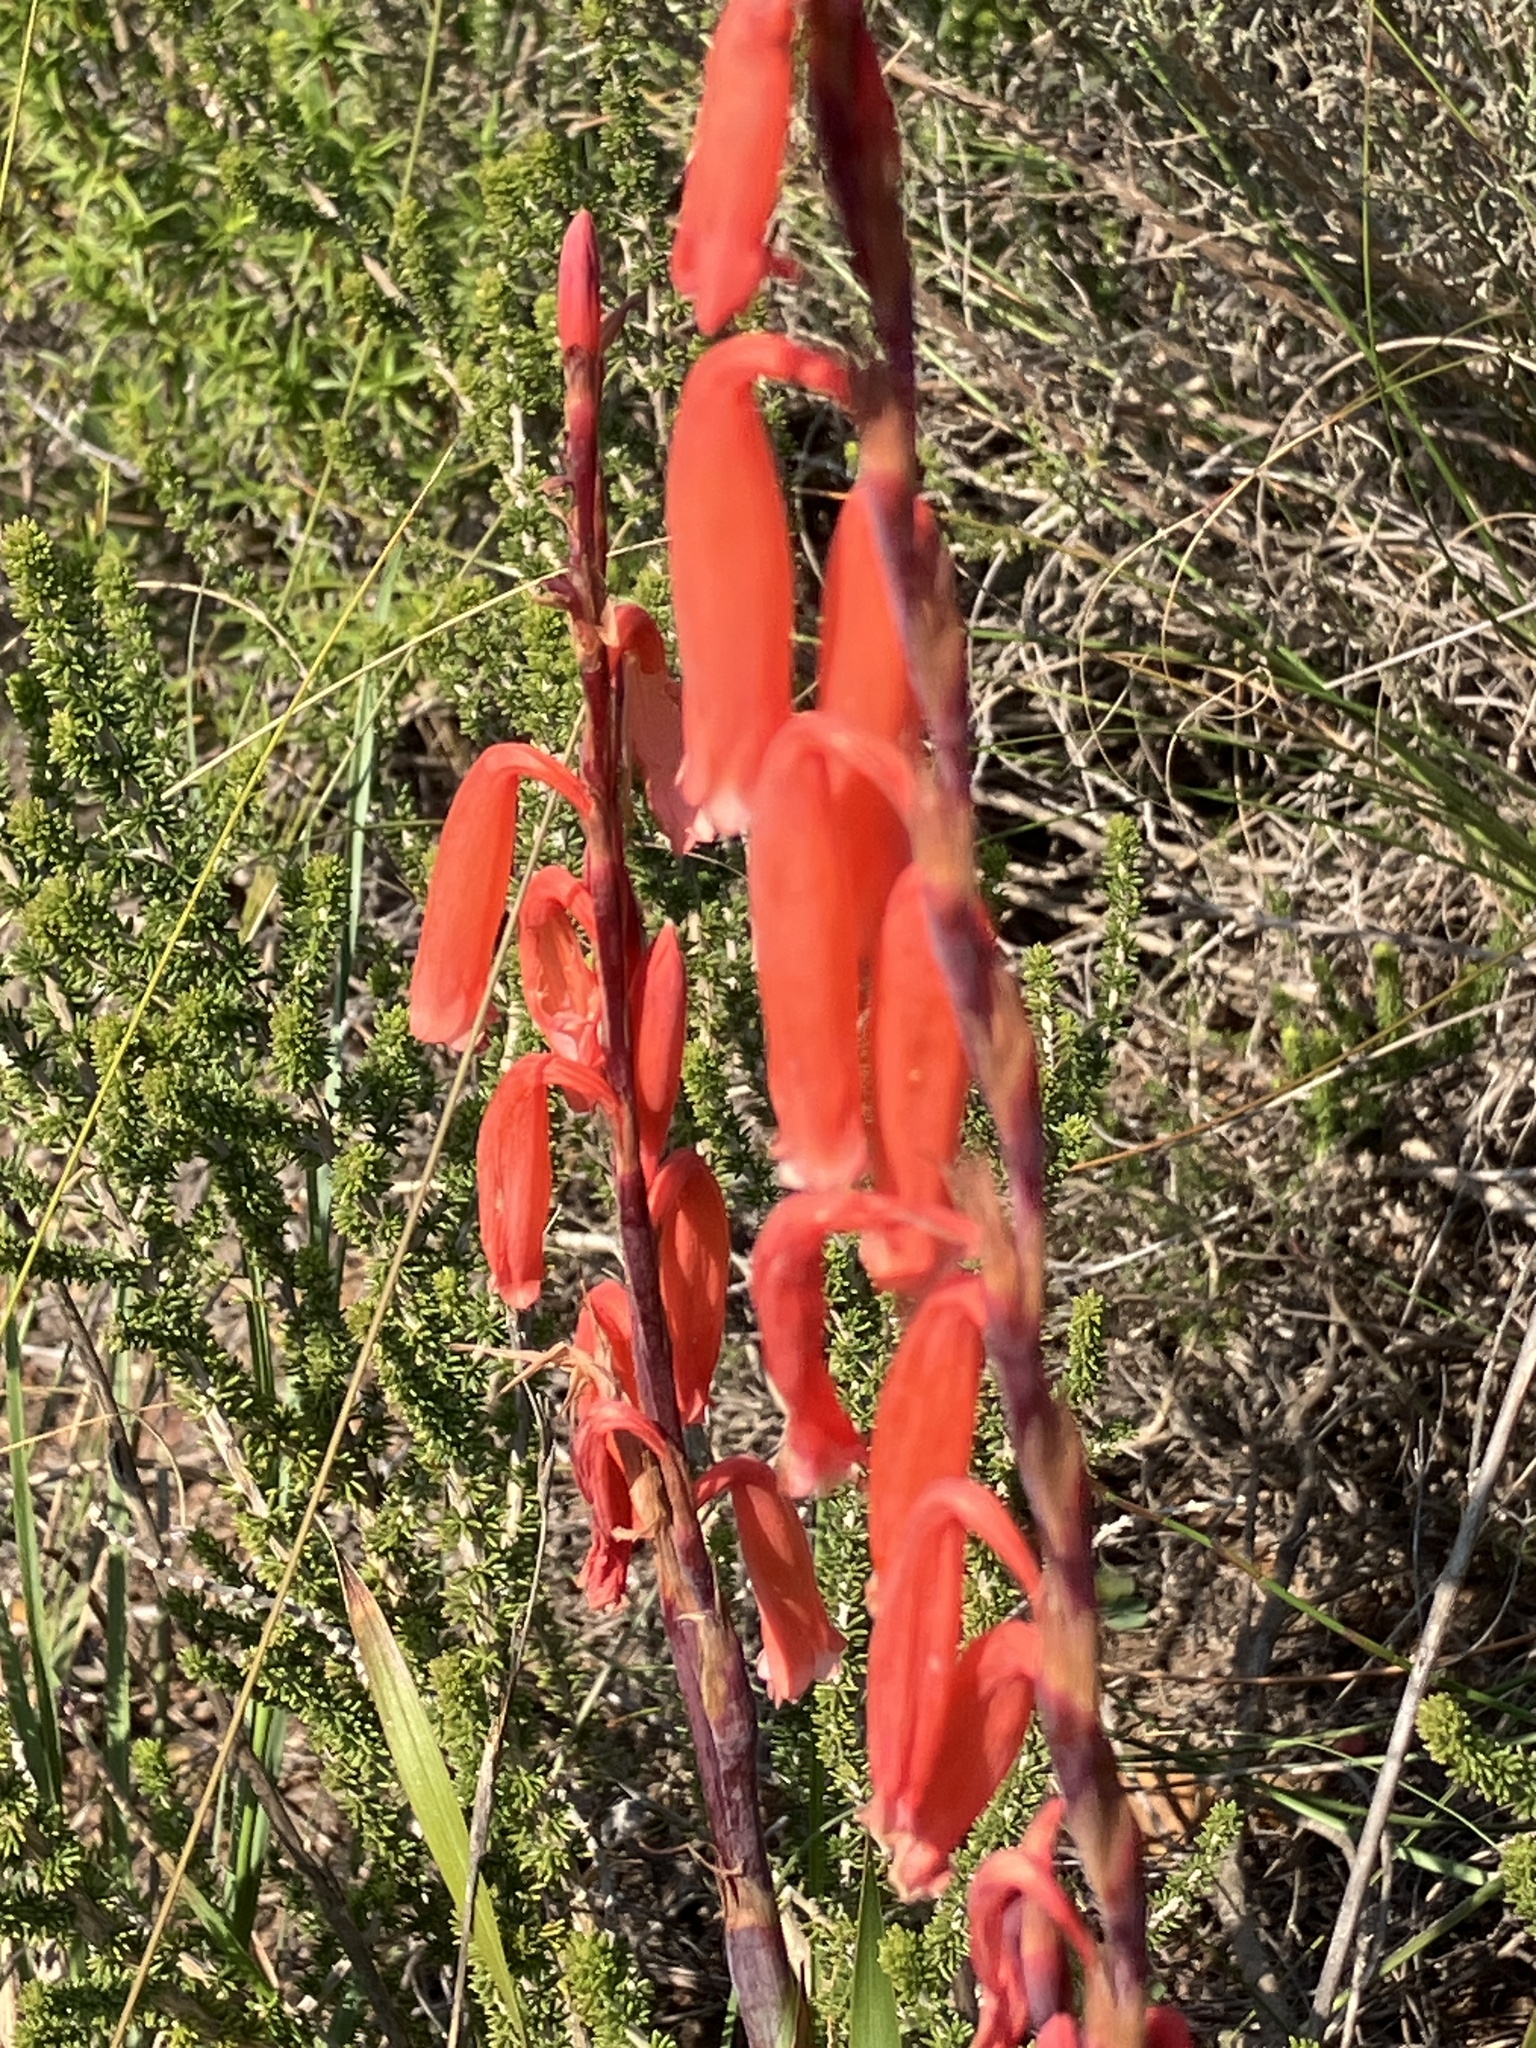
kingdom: Plantae
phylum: Tracheophyta
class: Liliopsida
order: Asparagales
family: Iridaceae
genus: Watsonia
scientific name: Watsonia aletroides
